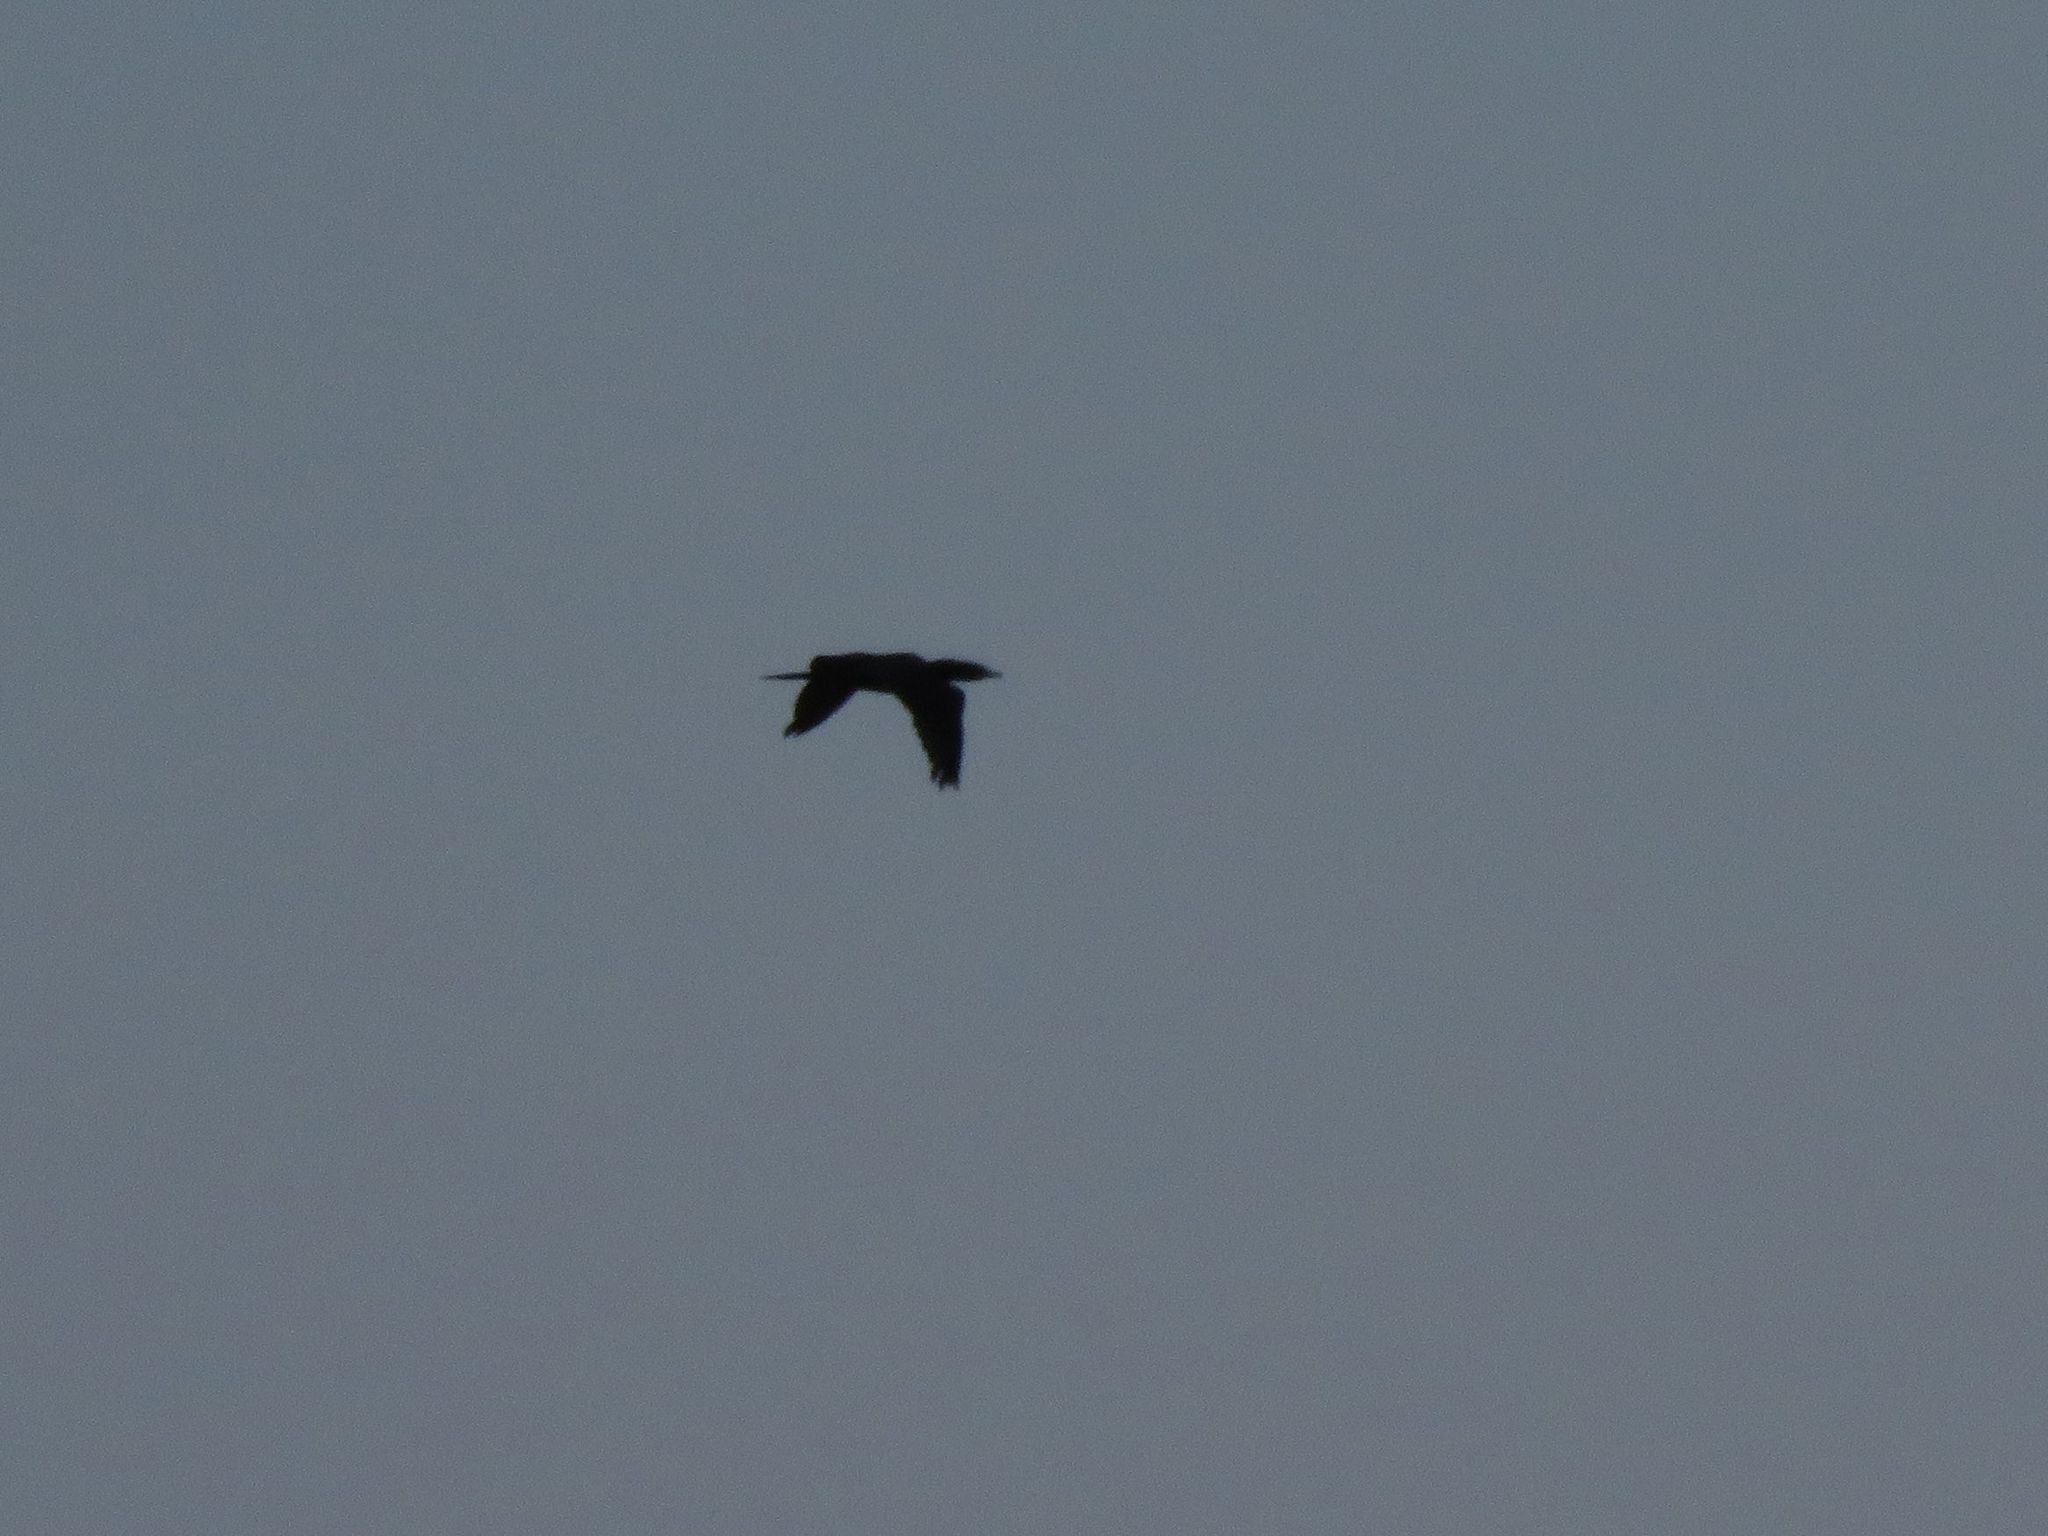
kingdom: Animalia
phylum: Chordata
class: Aves
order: Suliformes
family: Phalacrocoracidae
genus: Phalacrocorax
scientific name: Phalacrocorax brasilianus
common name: Neotropic cormorant
